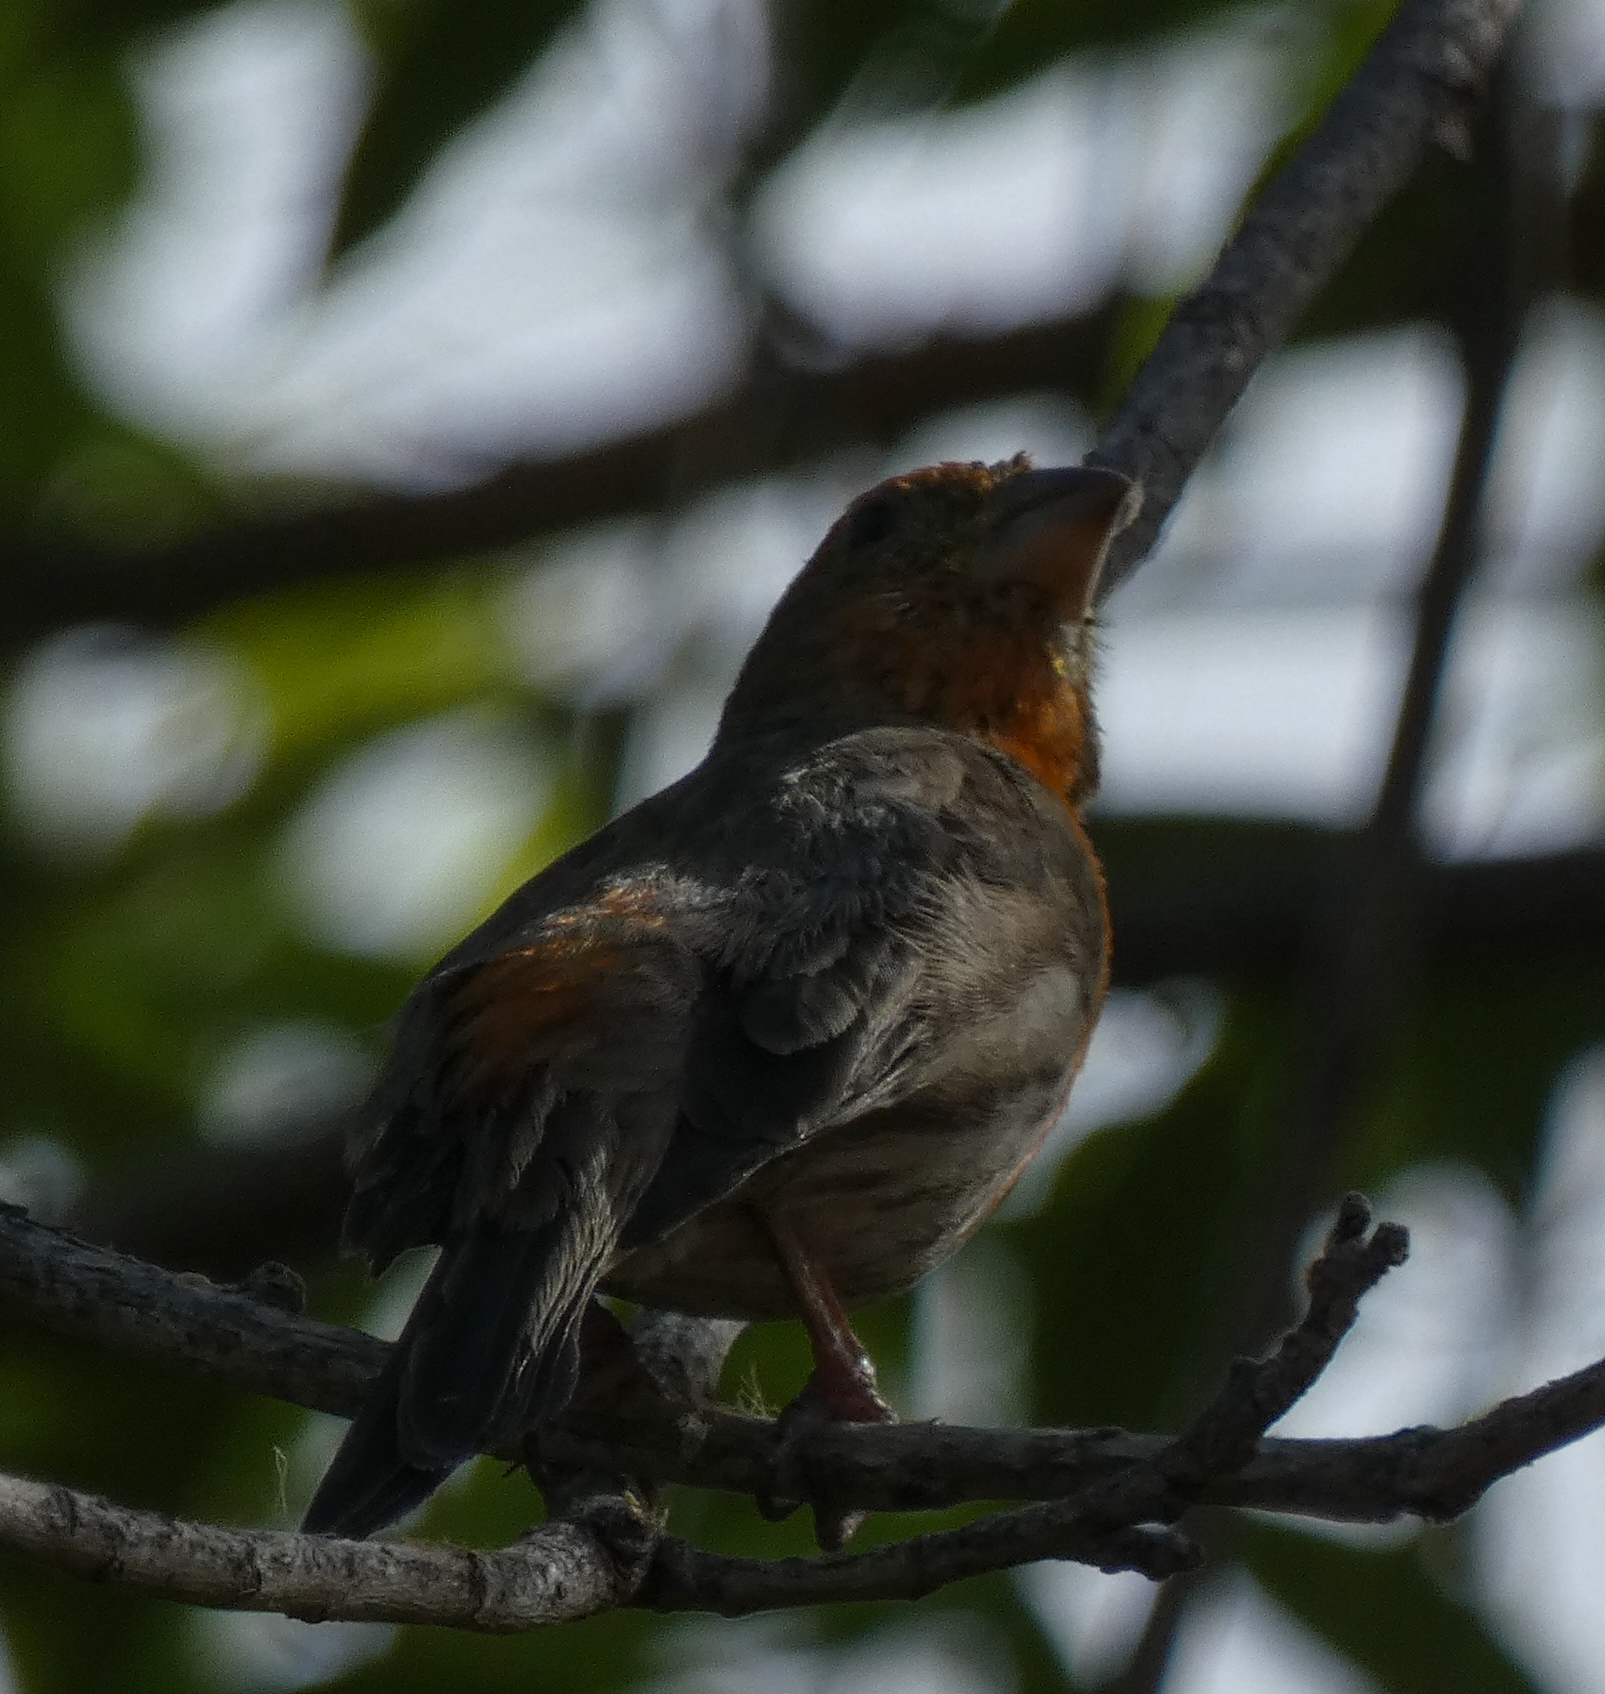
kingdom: Animalia
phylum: Chordata
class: Aves
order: Passeriformes
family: Fringillidae
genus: Haemorhous
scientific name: Haemorhous mexicanus
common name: House finch
